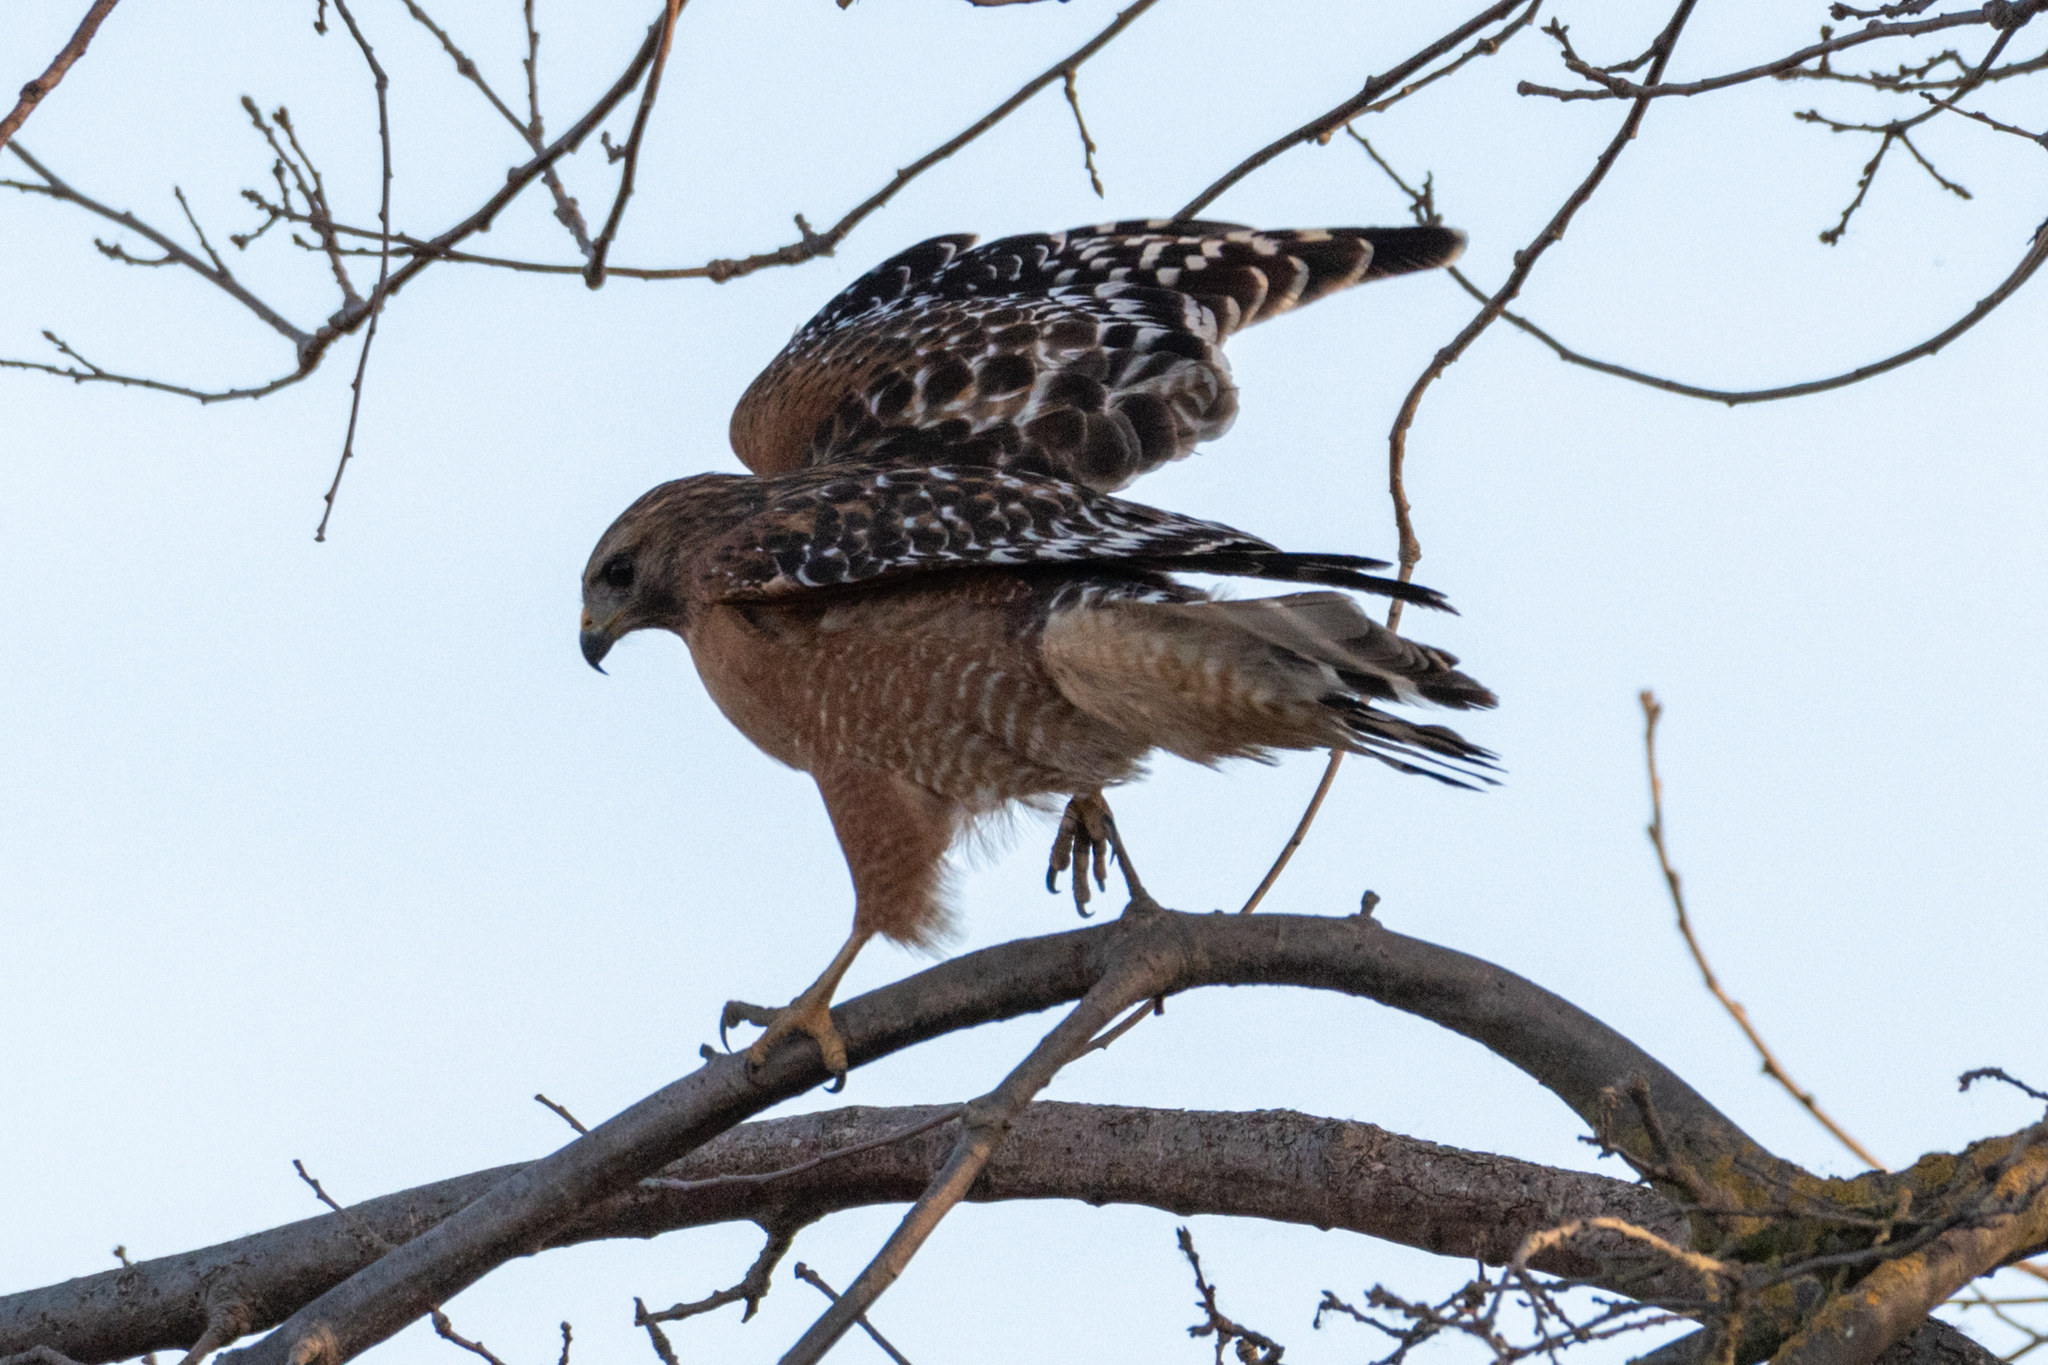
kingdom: Animalia
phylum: Chordata
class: Aves
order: Accipitriformes
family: Accipitridae
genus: Buteo
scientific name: Buteo lineatus
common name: Red-shouldered hawk
